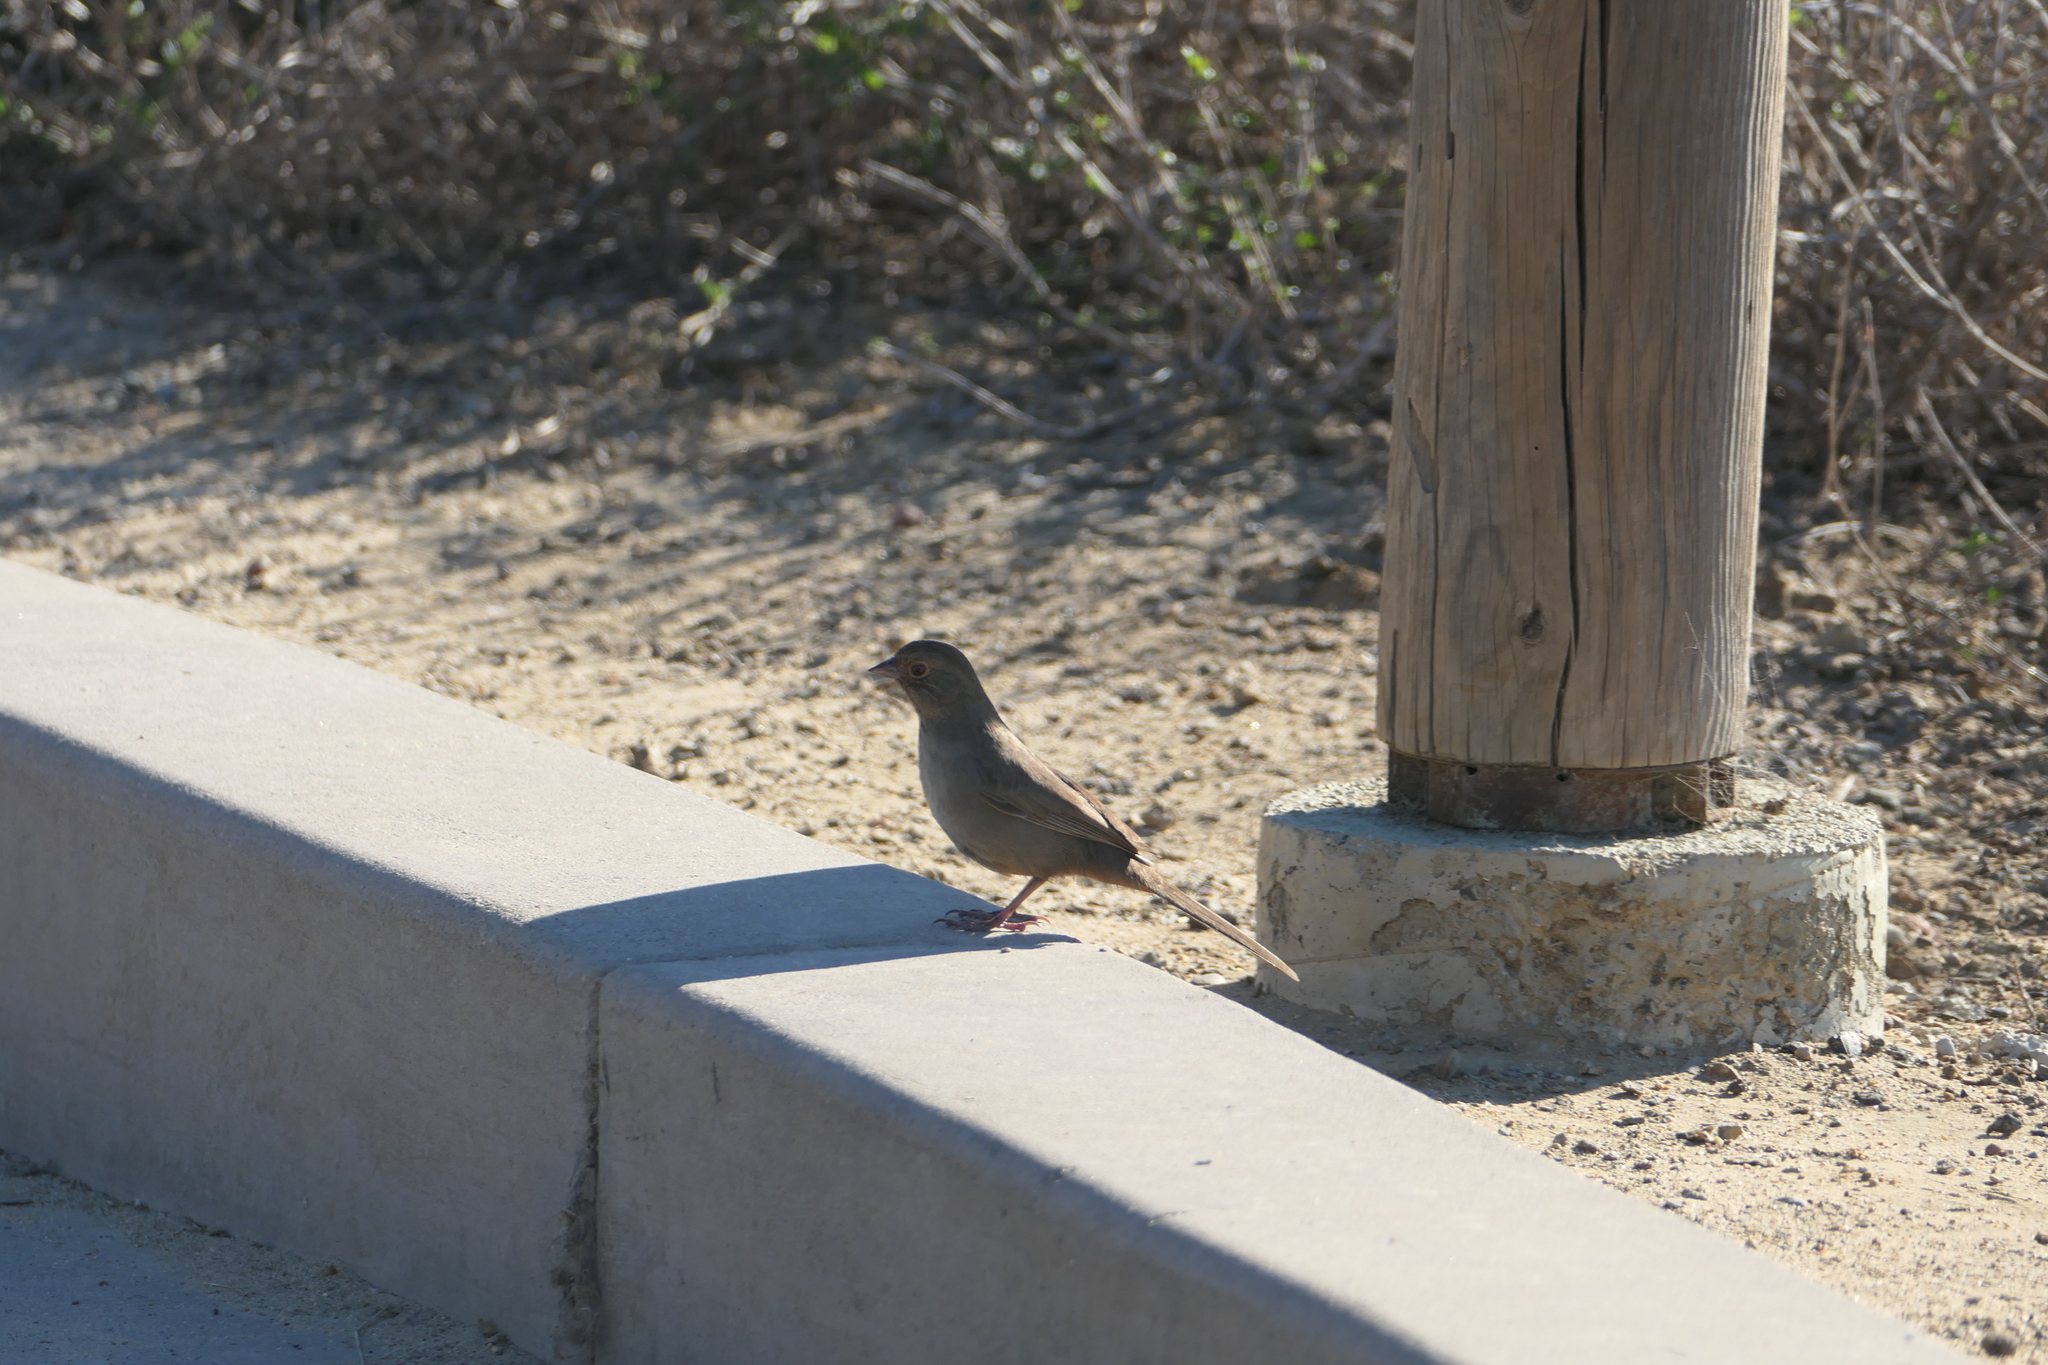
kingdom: Animalia
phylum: Chordata
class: Aves
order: Passeriformes
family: Passerellidae
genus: Melozone
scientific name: Melozone crissalis
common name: California towhee
